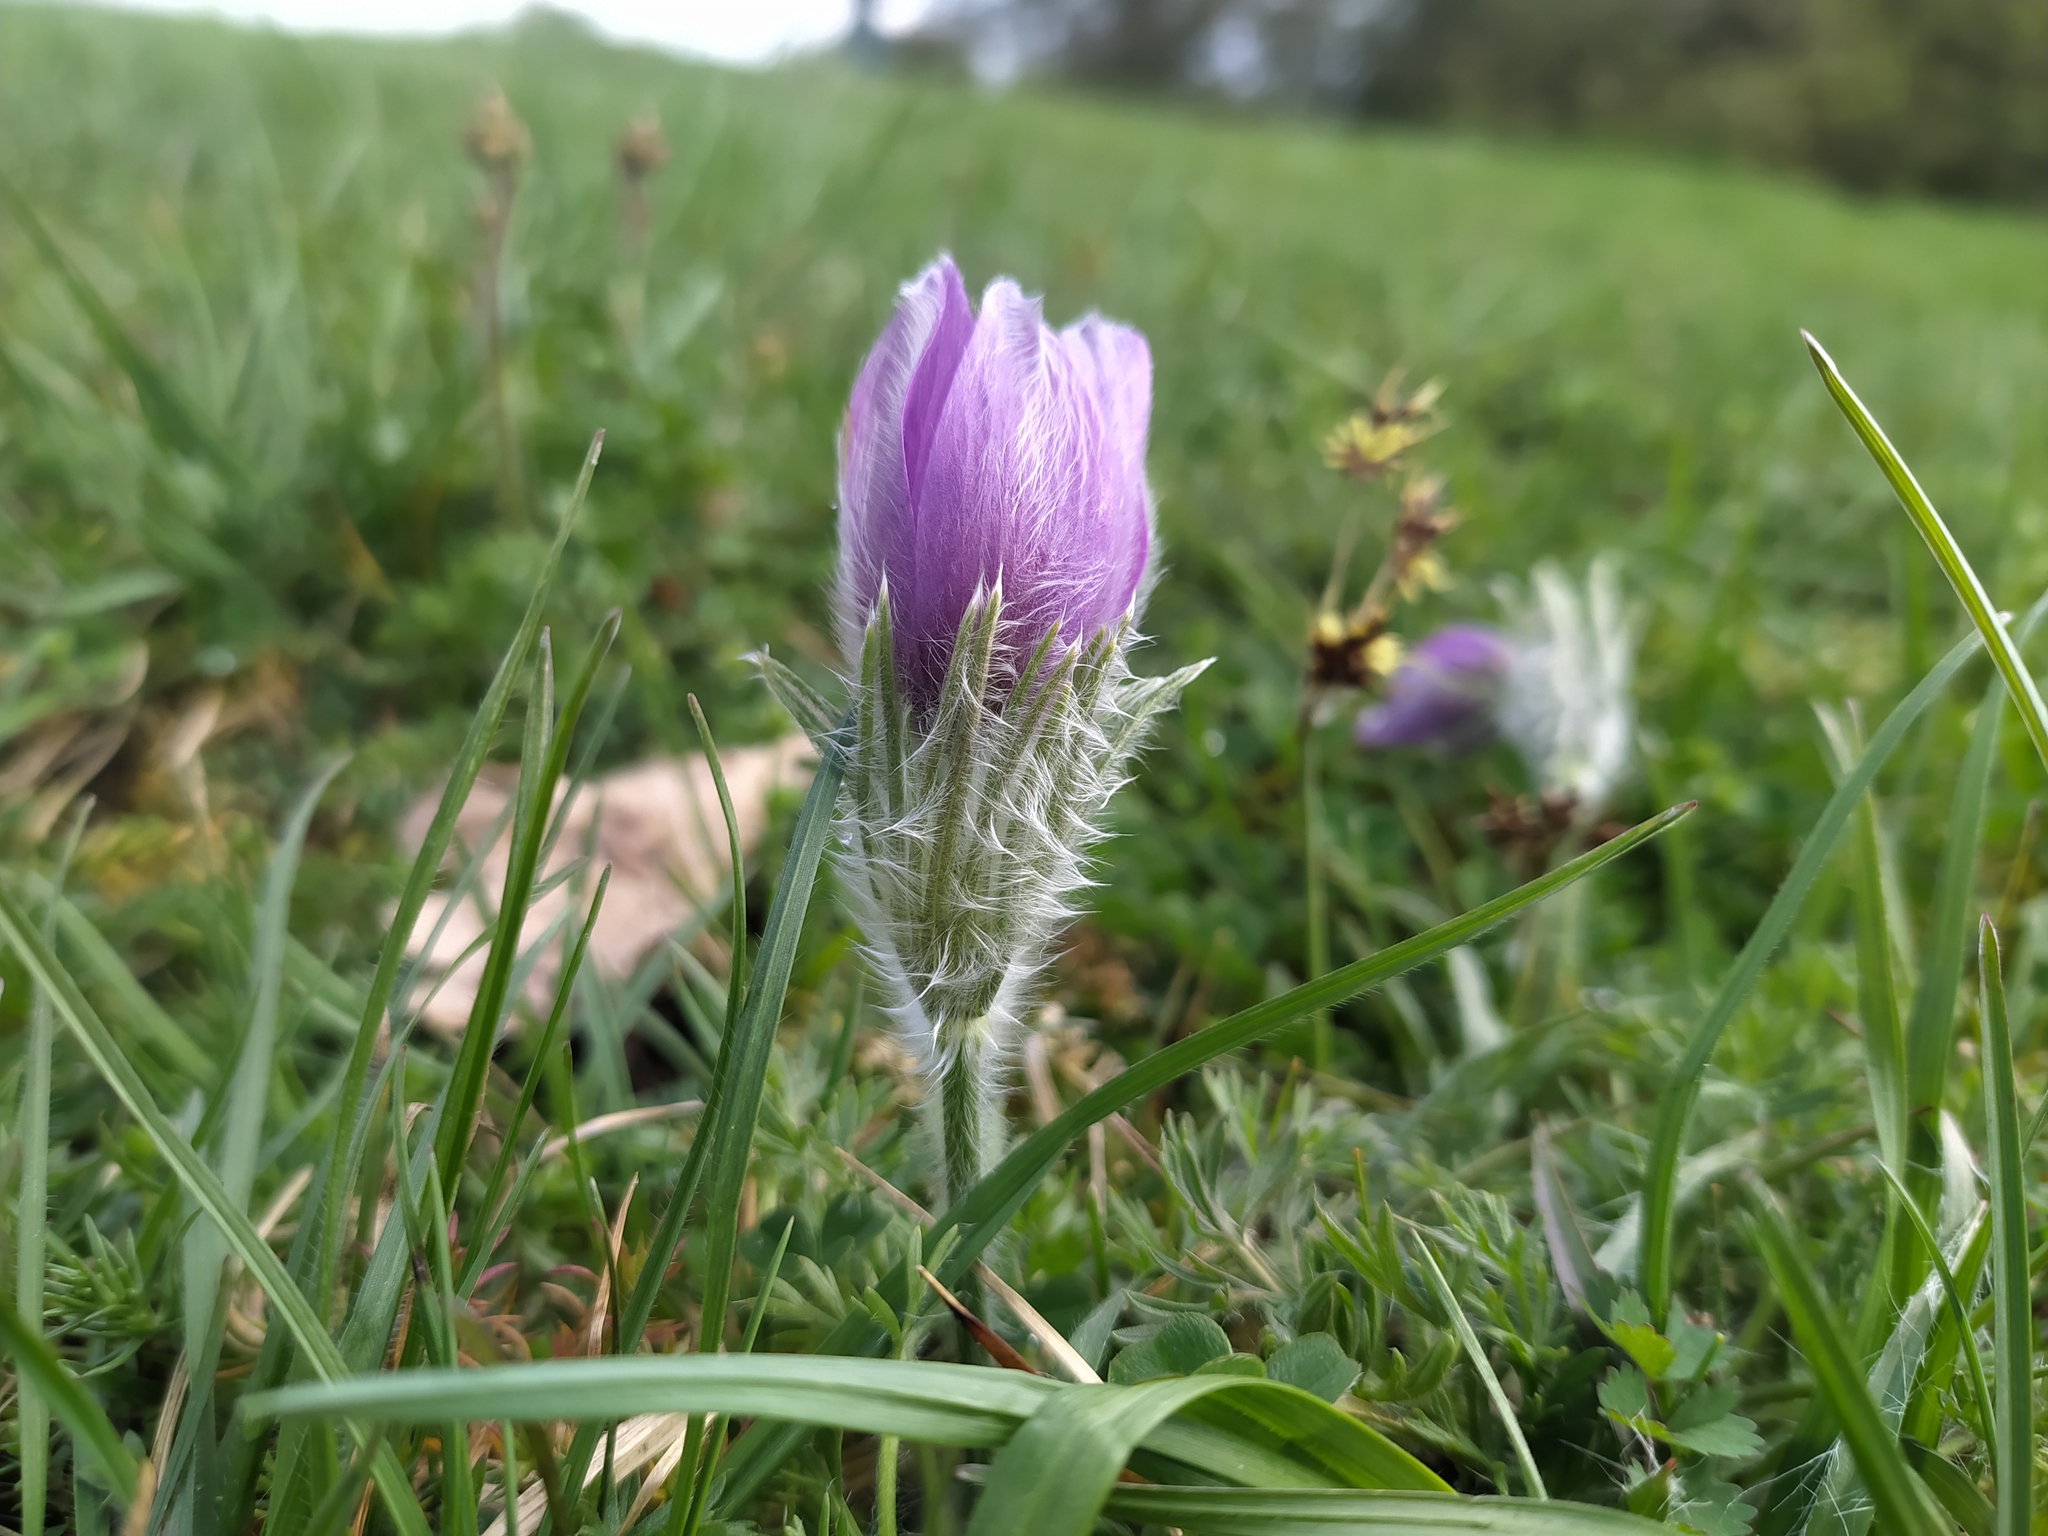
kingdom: Plantae
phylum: Tracheophyta
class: Magnoliopsida
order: Ranunculales
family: Ranunculaceae
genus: Pulsatilla
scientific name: Pulsatilla vulgaris
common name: Pasqueflower
